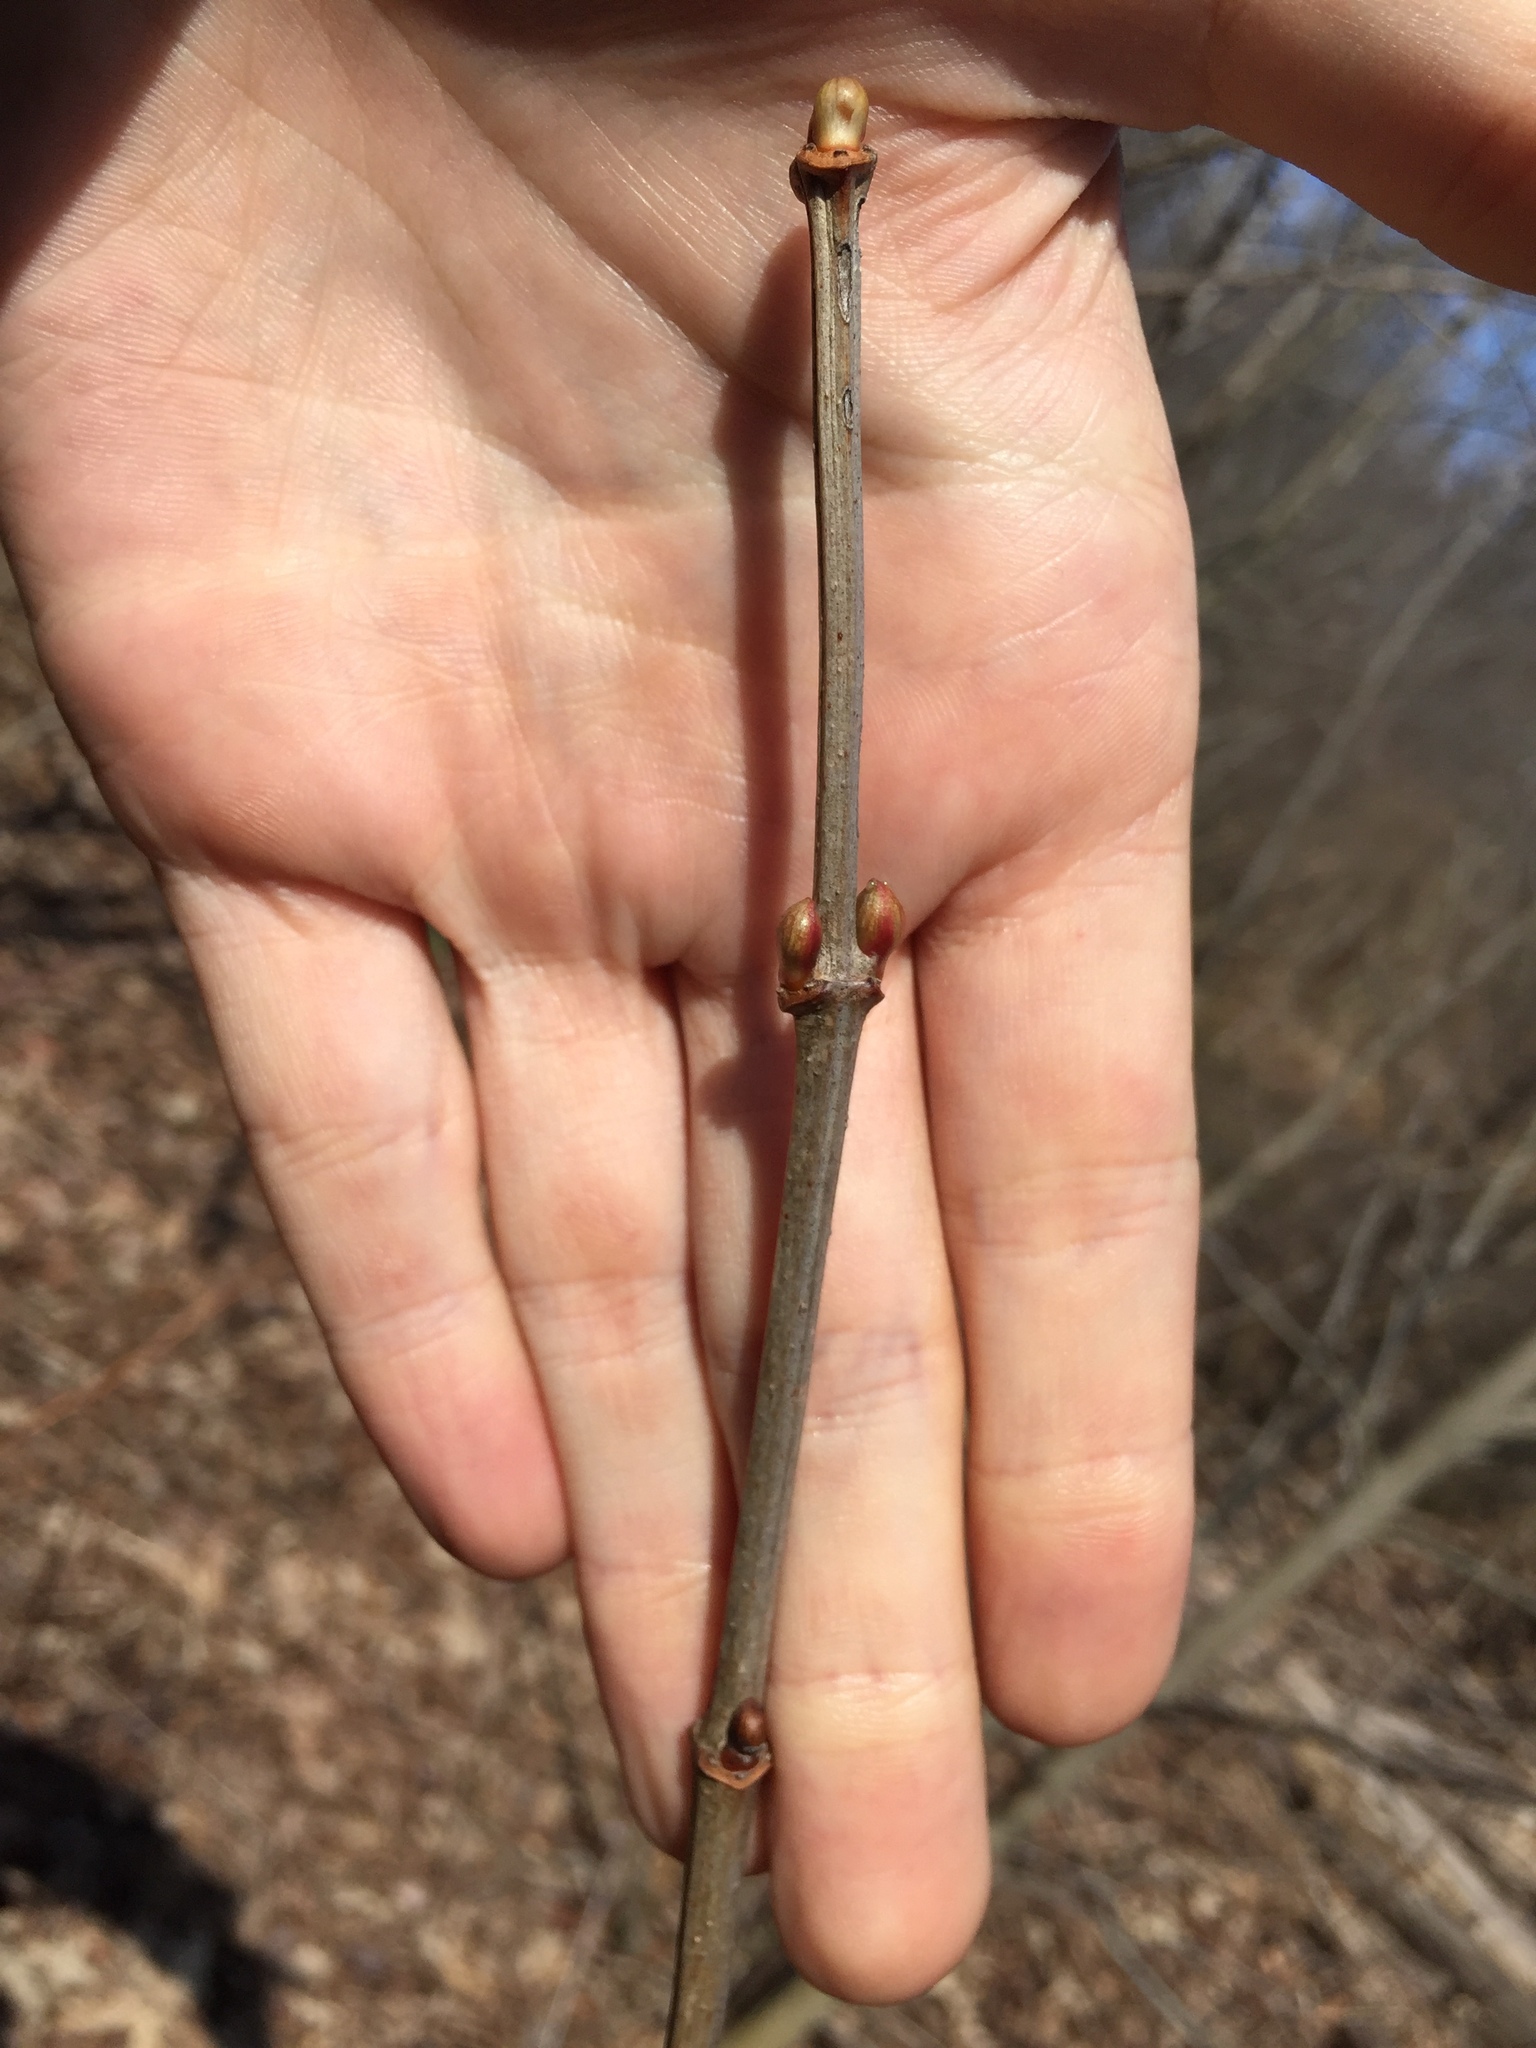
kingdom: Plantae
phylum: Tracheophyta
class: Magnoliopsida
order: Dipsacales
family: Viburnaceae
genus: Viburnum
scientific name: Viburnum opulus
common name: Guelder-rose
